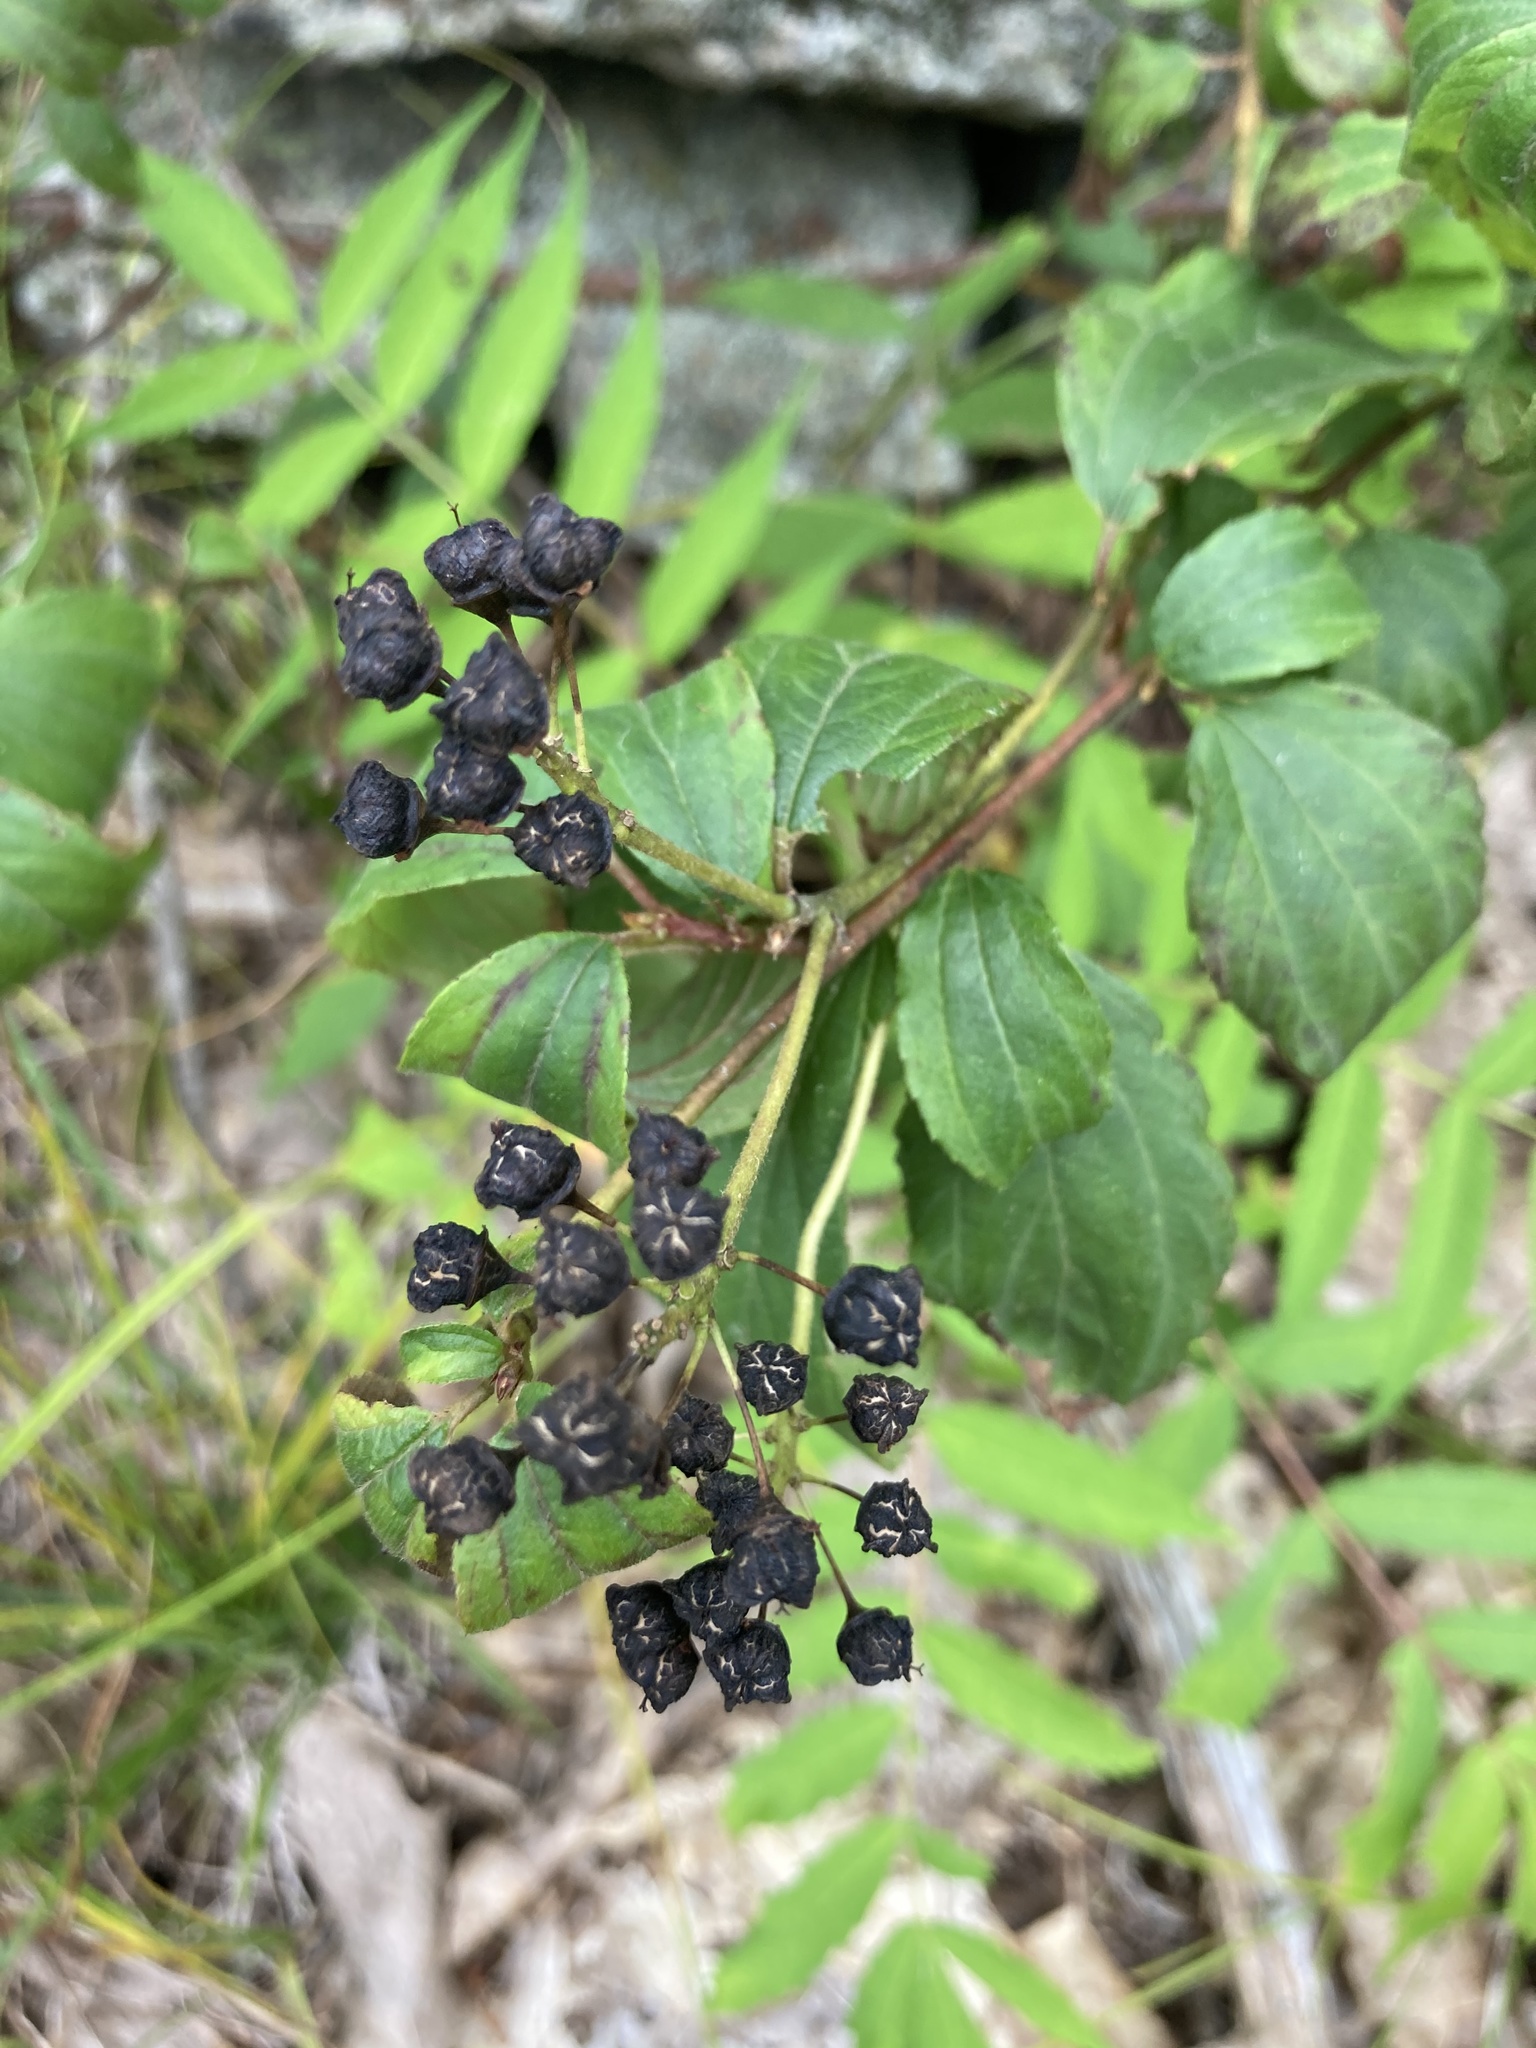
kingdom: Plantae
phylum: Tracheophyta
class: Magnoliopsida
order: Rosales
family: Rhamnaceae
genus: Ceanothus
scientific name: Ceanothus americanus
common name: Redroot
